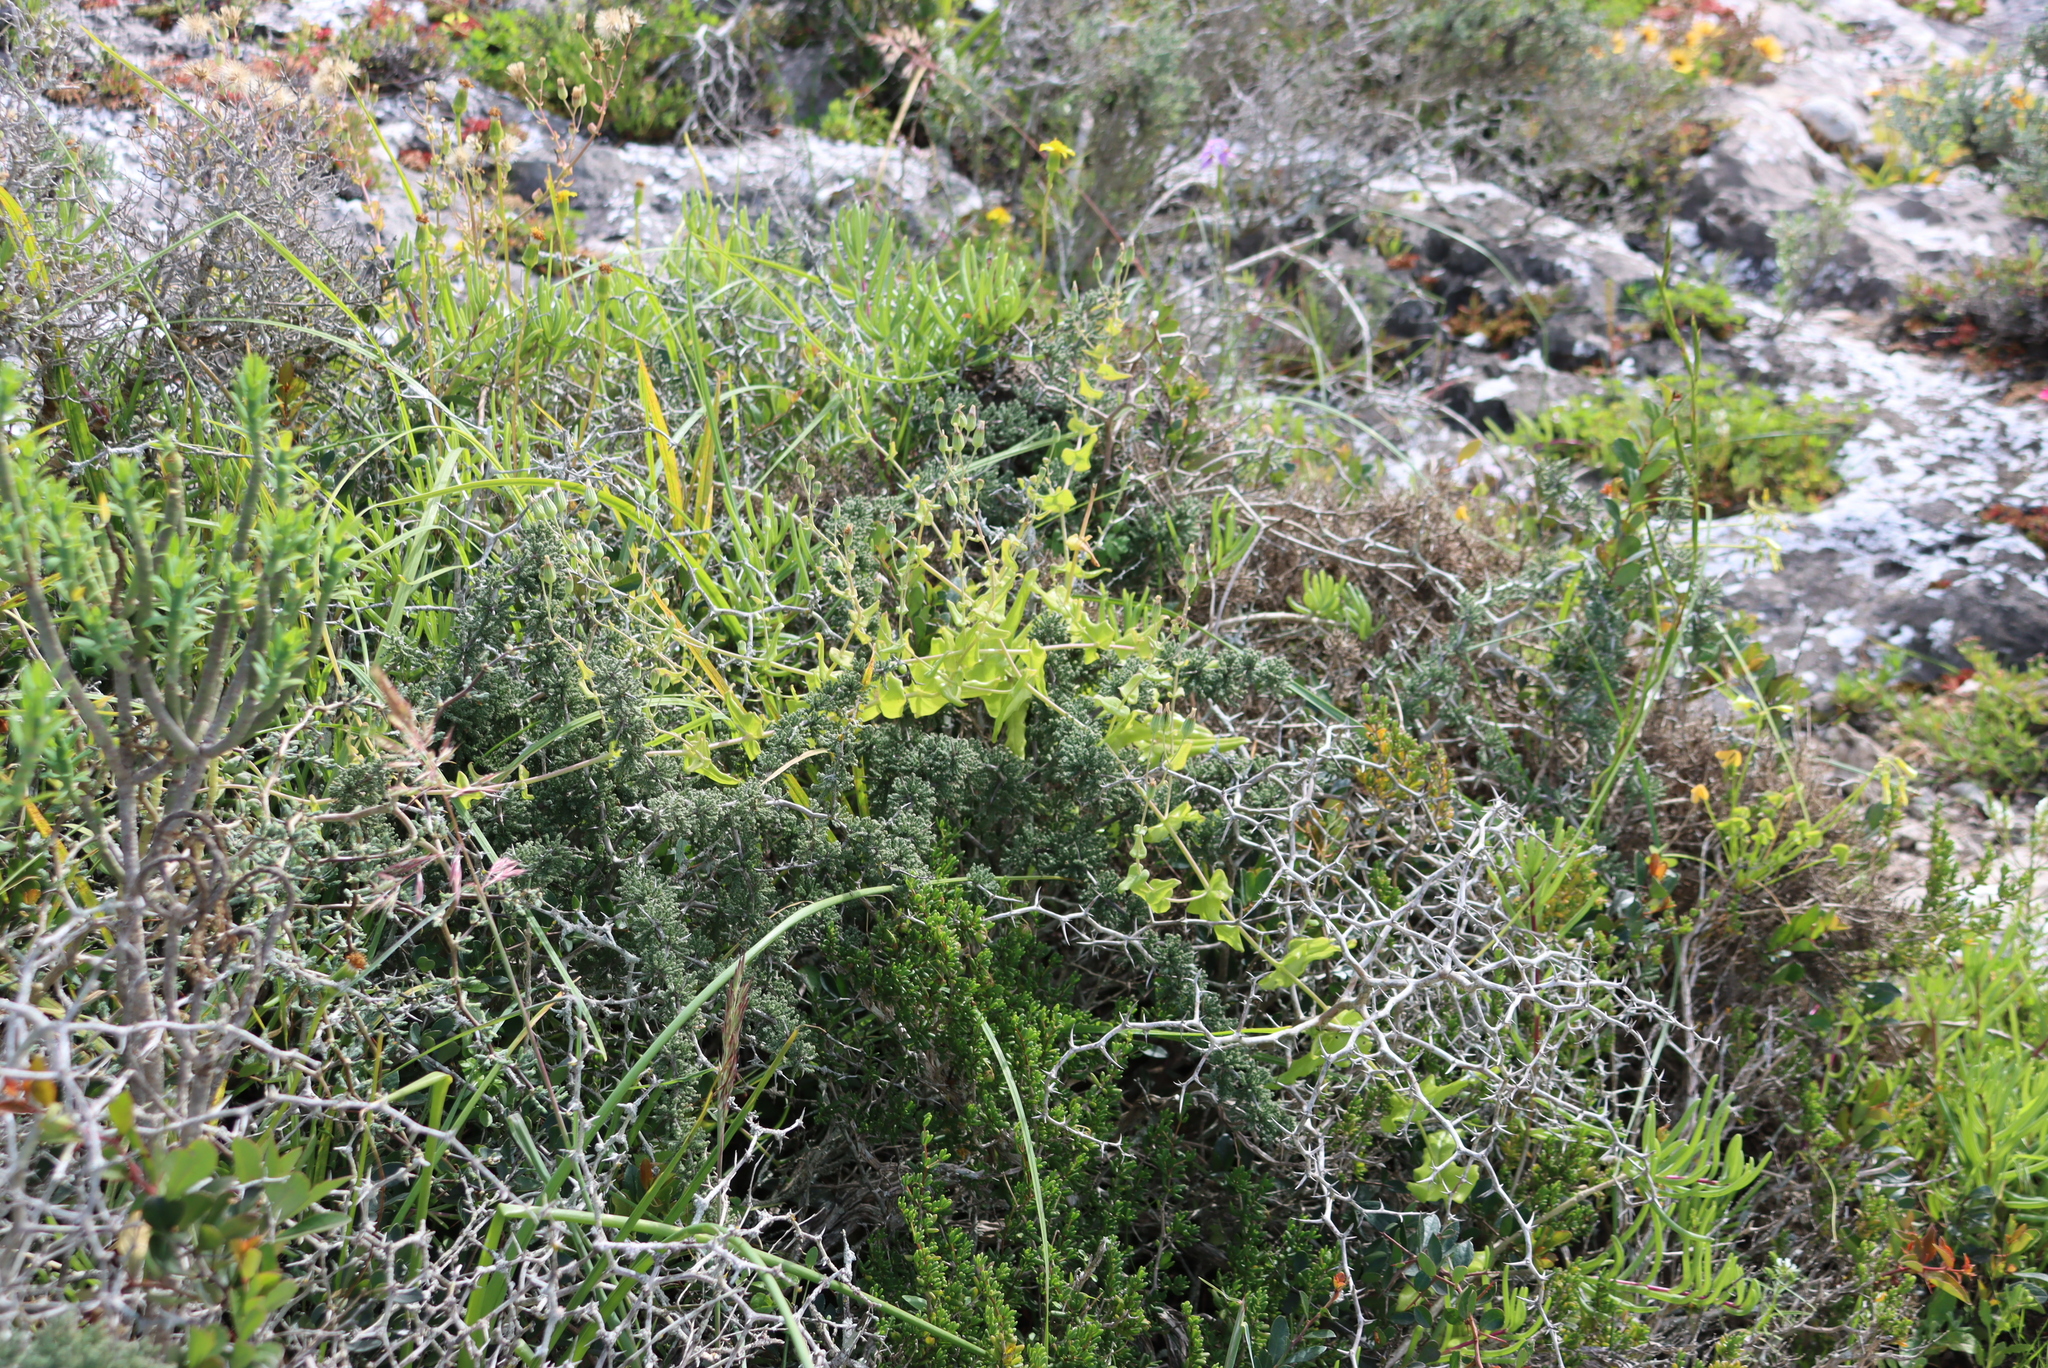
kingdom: Plantae
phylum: Tracheophyta
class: Magnoliopsida
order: Asterales
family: Asteraceae
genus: Othonna
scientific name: Othonna undulosa
